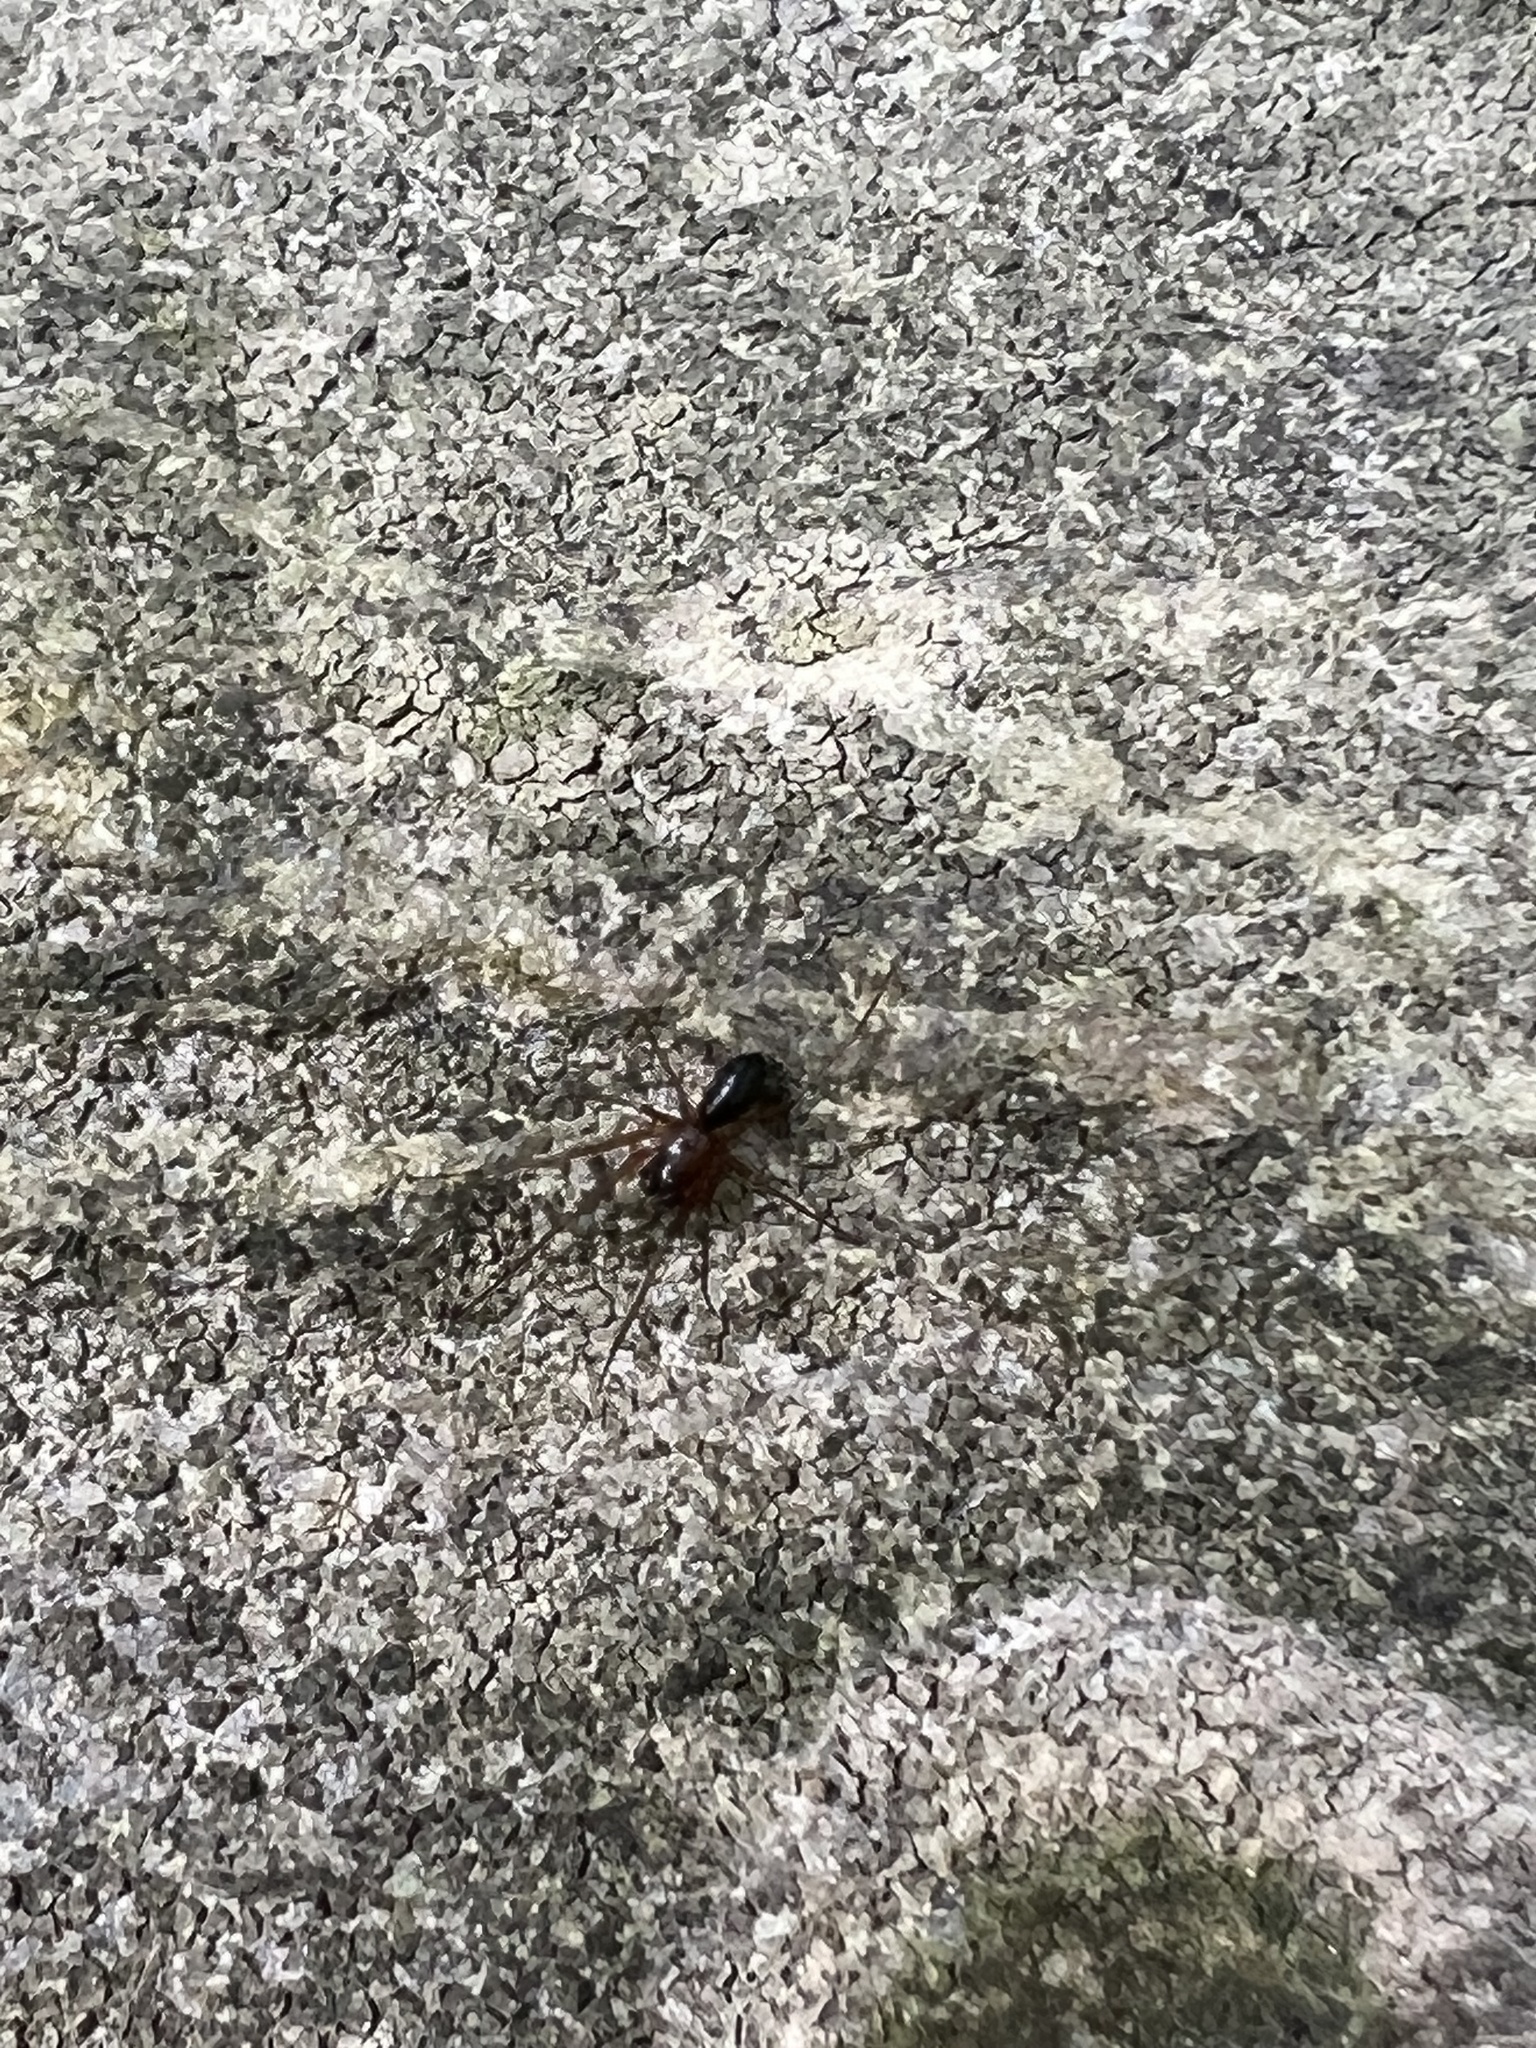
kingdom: Plantae
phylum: Bryophyta
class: Bryopsida
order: Hypnales
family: Entodontaceae
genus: Entodon
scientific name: Entodon seductrix
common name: Round-stemmed entodon moss
